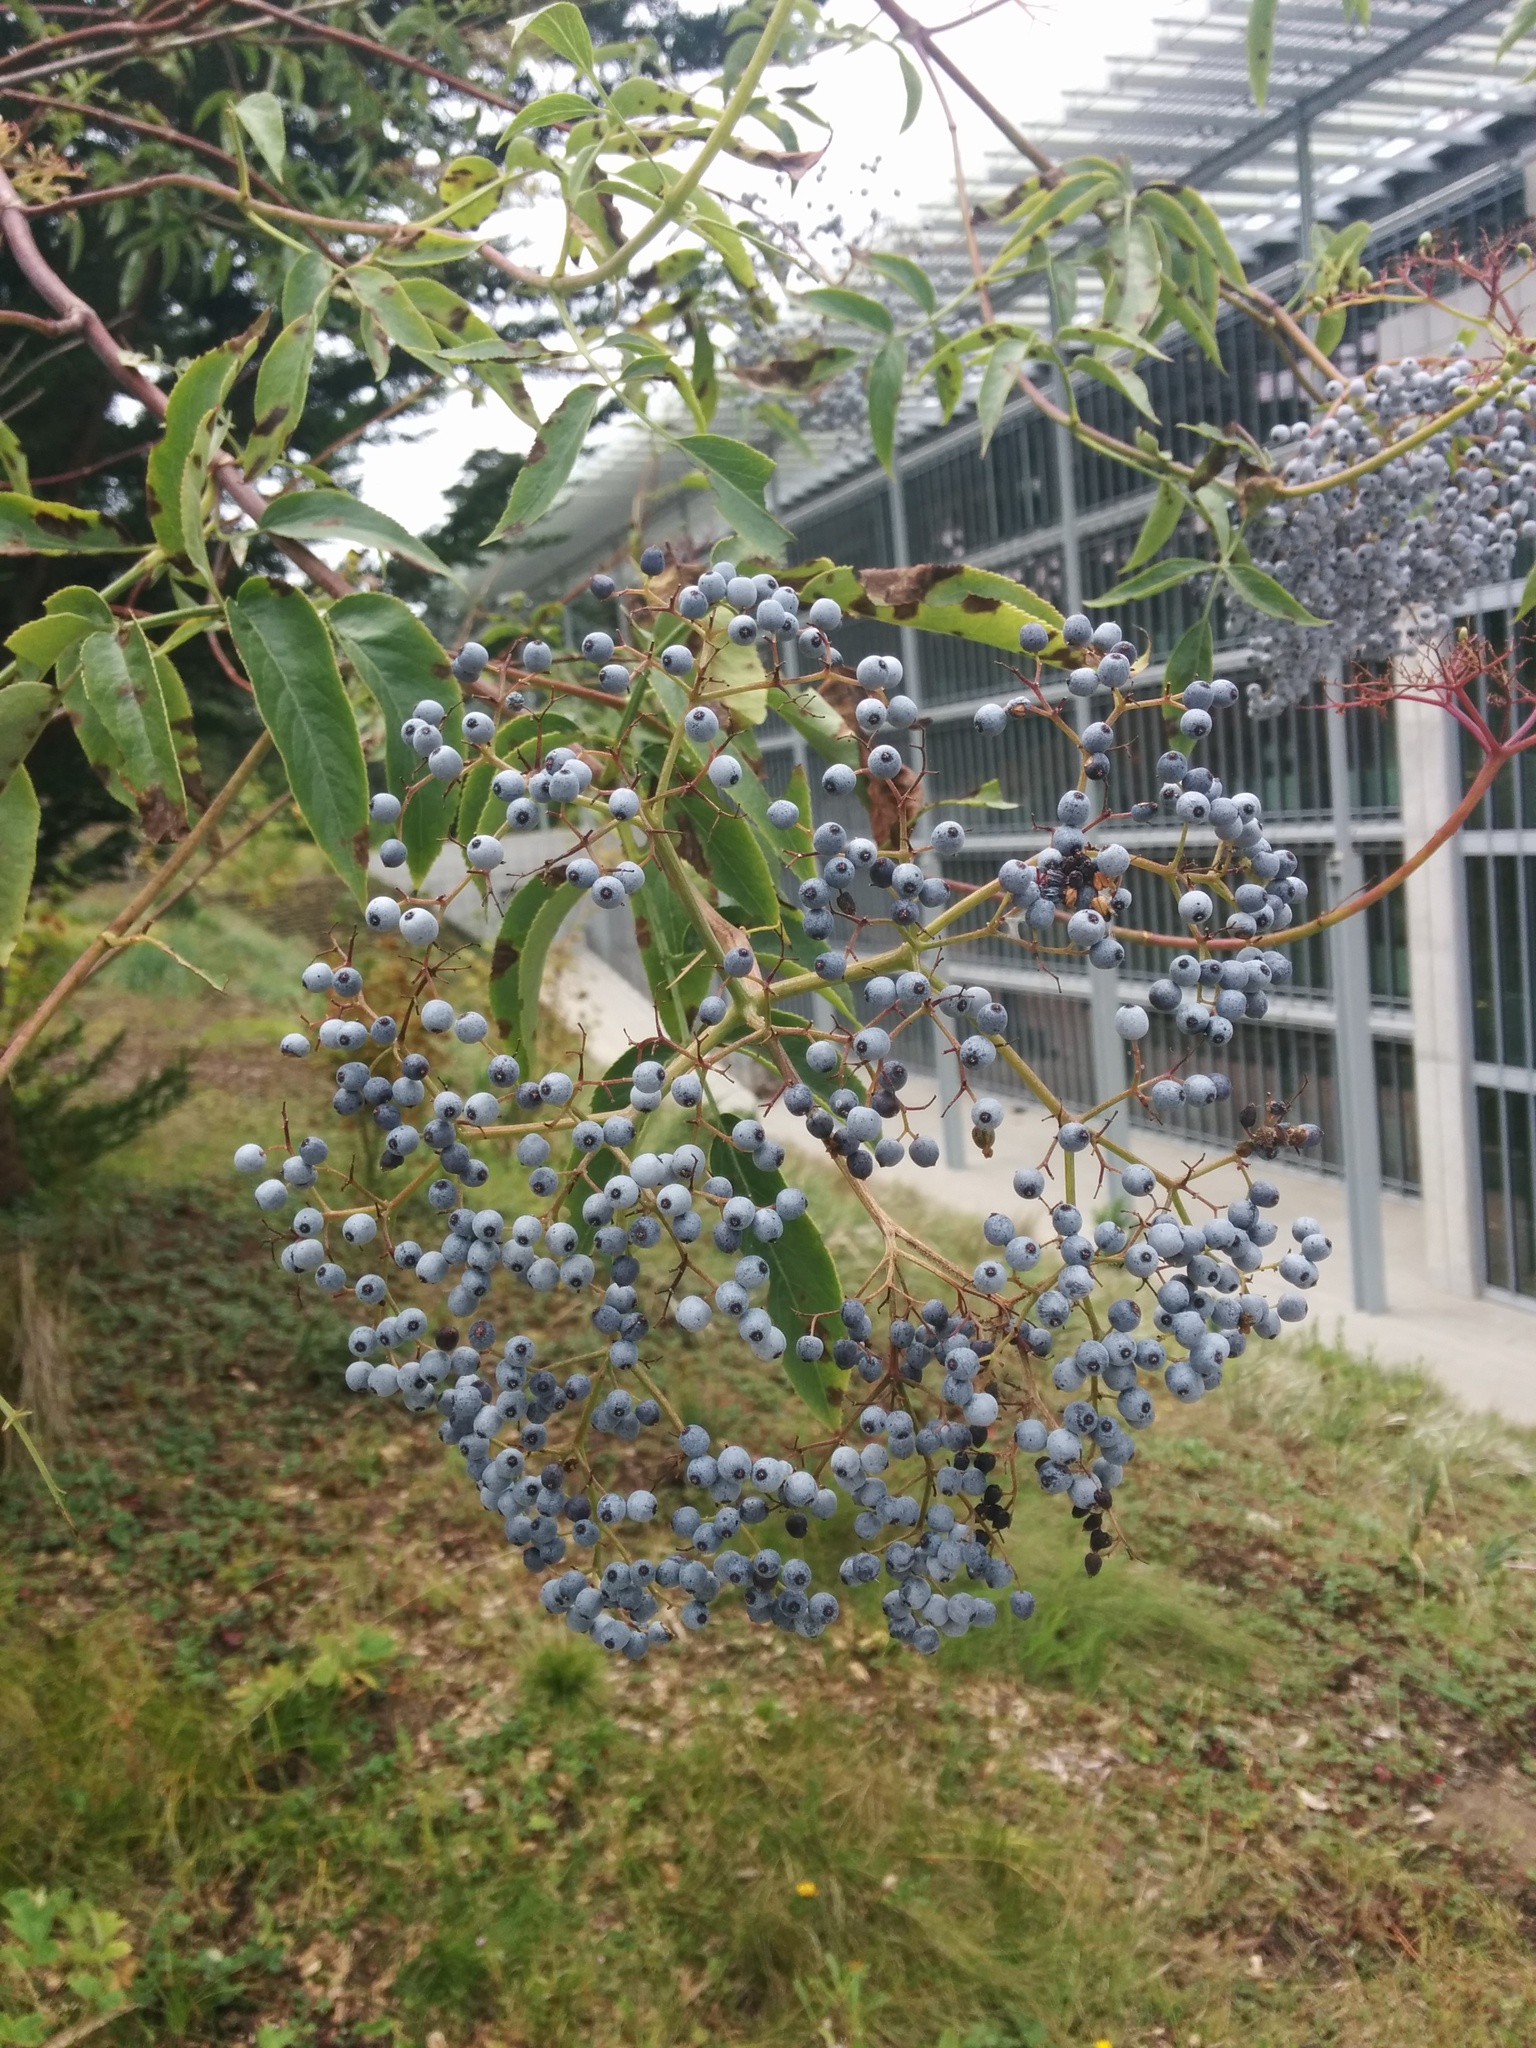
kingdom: Plantae
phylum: Tracheophyta
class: Magnoliopsida
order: Dipsacales
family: Viburnaceae
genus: Sambucus
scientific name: Sambucus cerulea
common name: Blue elder
